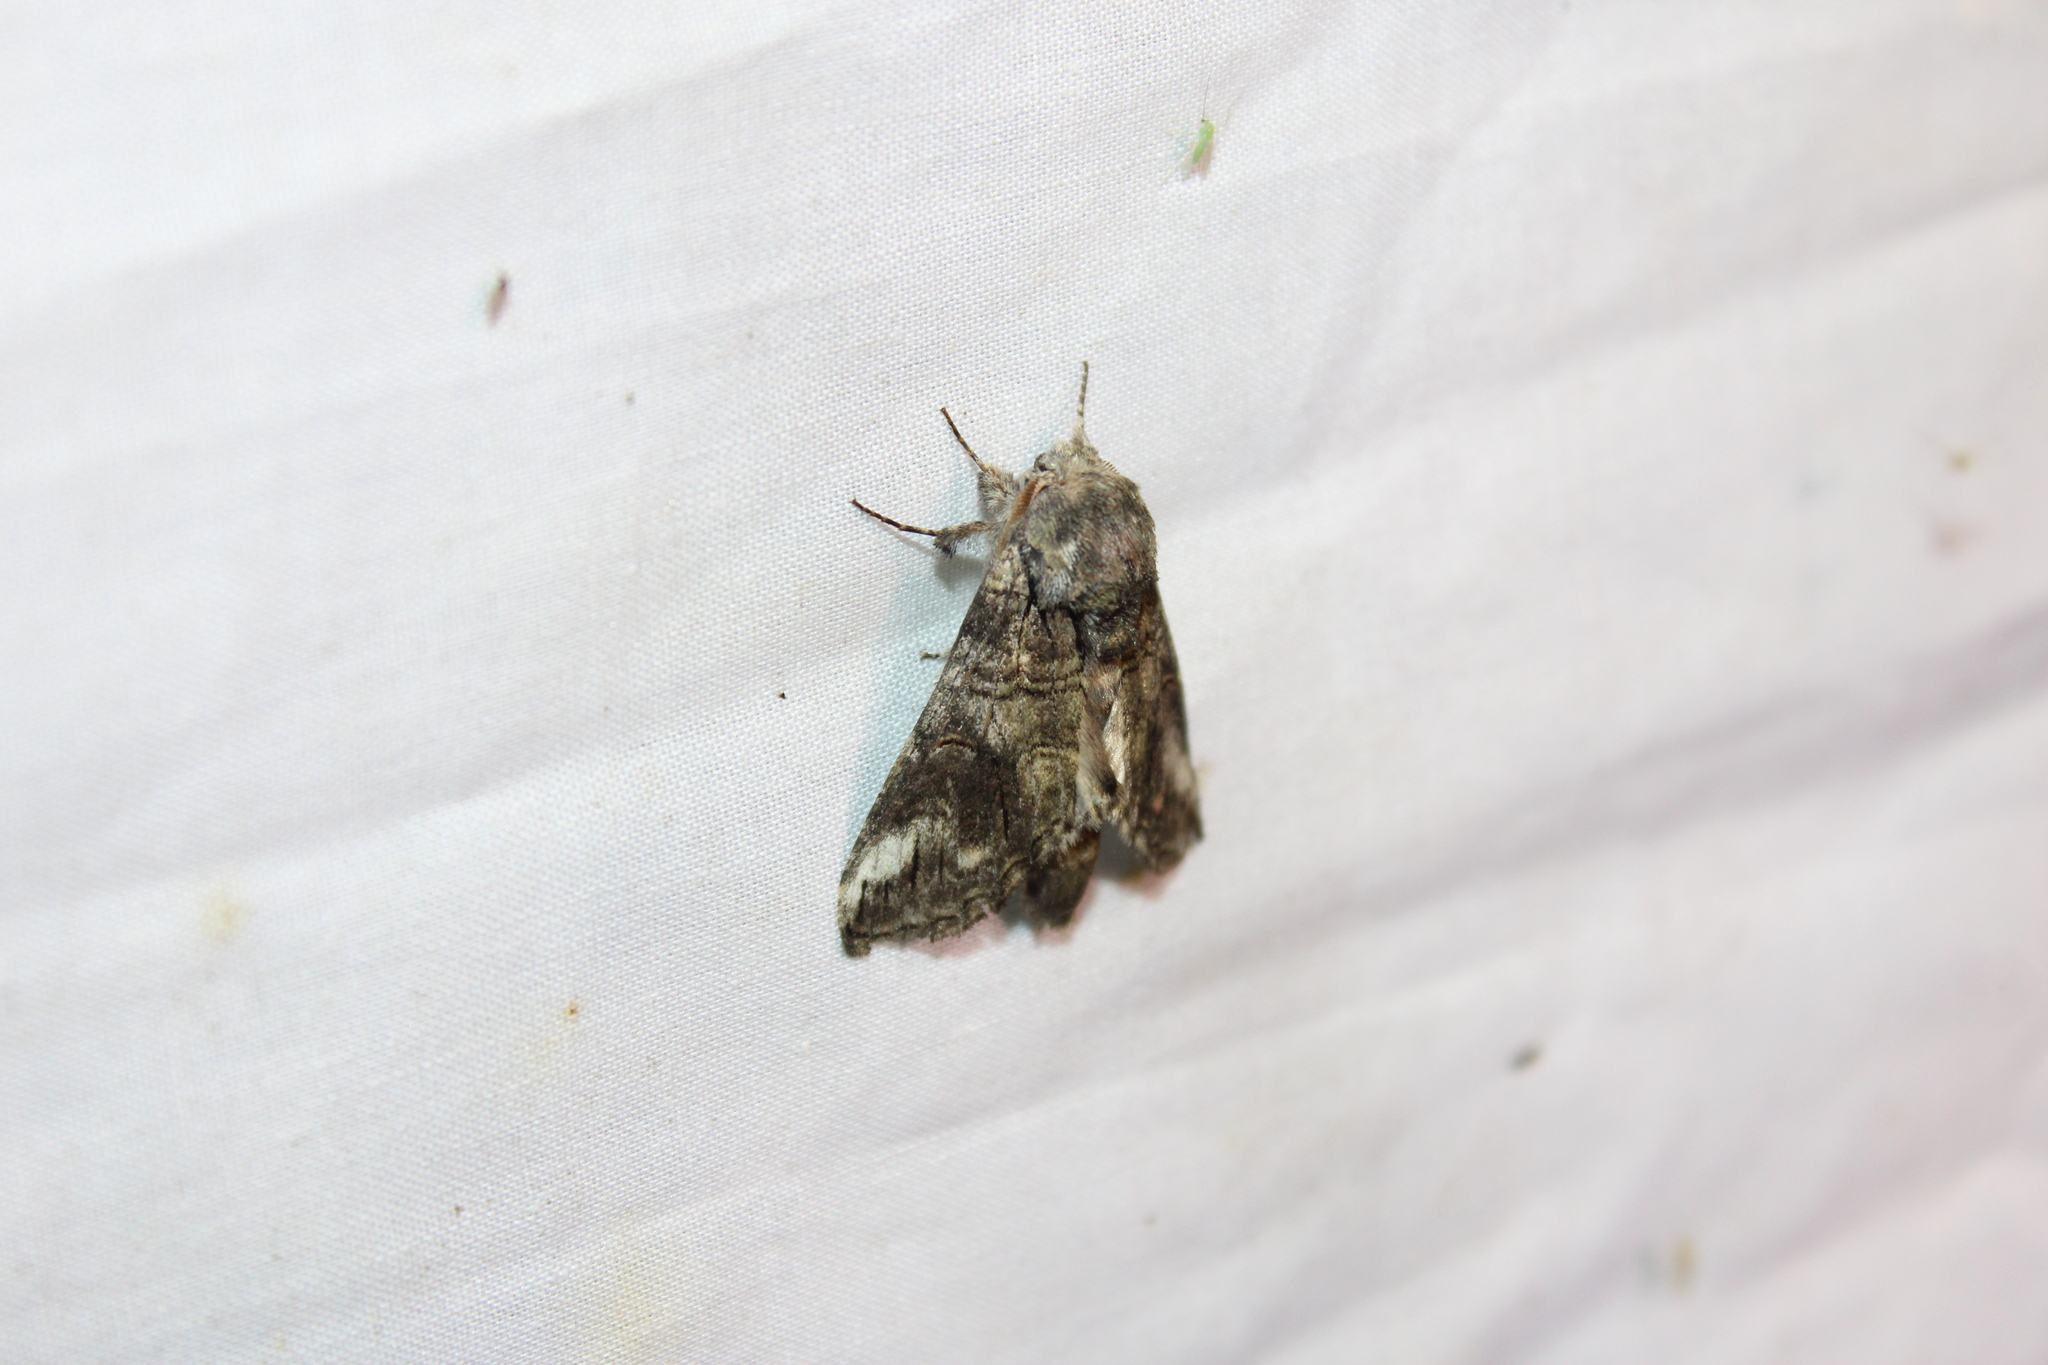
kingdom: Animalia
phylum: Arthropoda
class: Insecta
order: Lepidoptera
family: Notodontidae
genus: Heterocampa
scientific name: Heterocampa obliqua
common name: Oblique heterocampa
